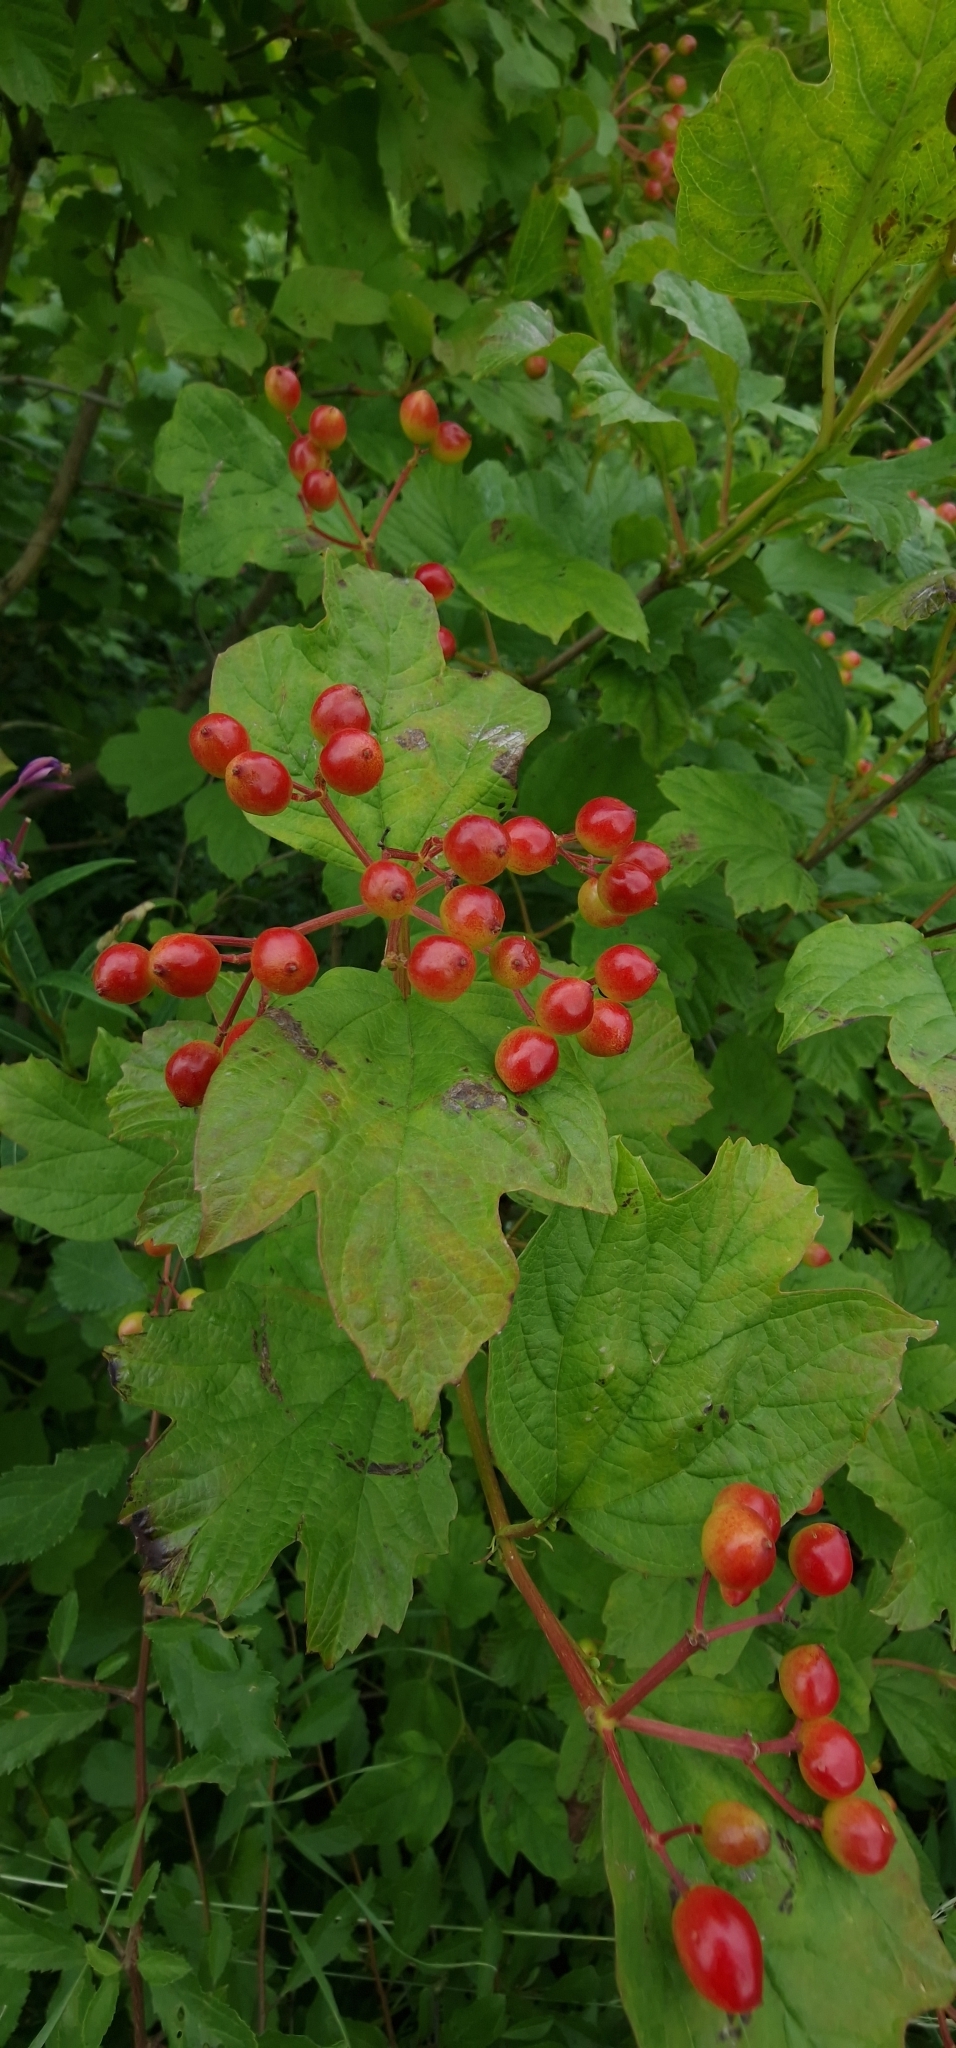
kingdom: Plantae
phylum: Tracheophyta
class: Magnoliopsida
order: Dipsacales
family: Viburnaceae
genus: Viburnum
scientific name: Viburnum opulus
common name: Guelder-rose
